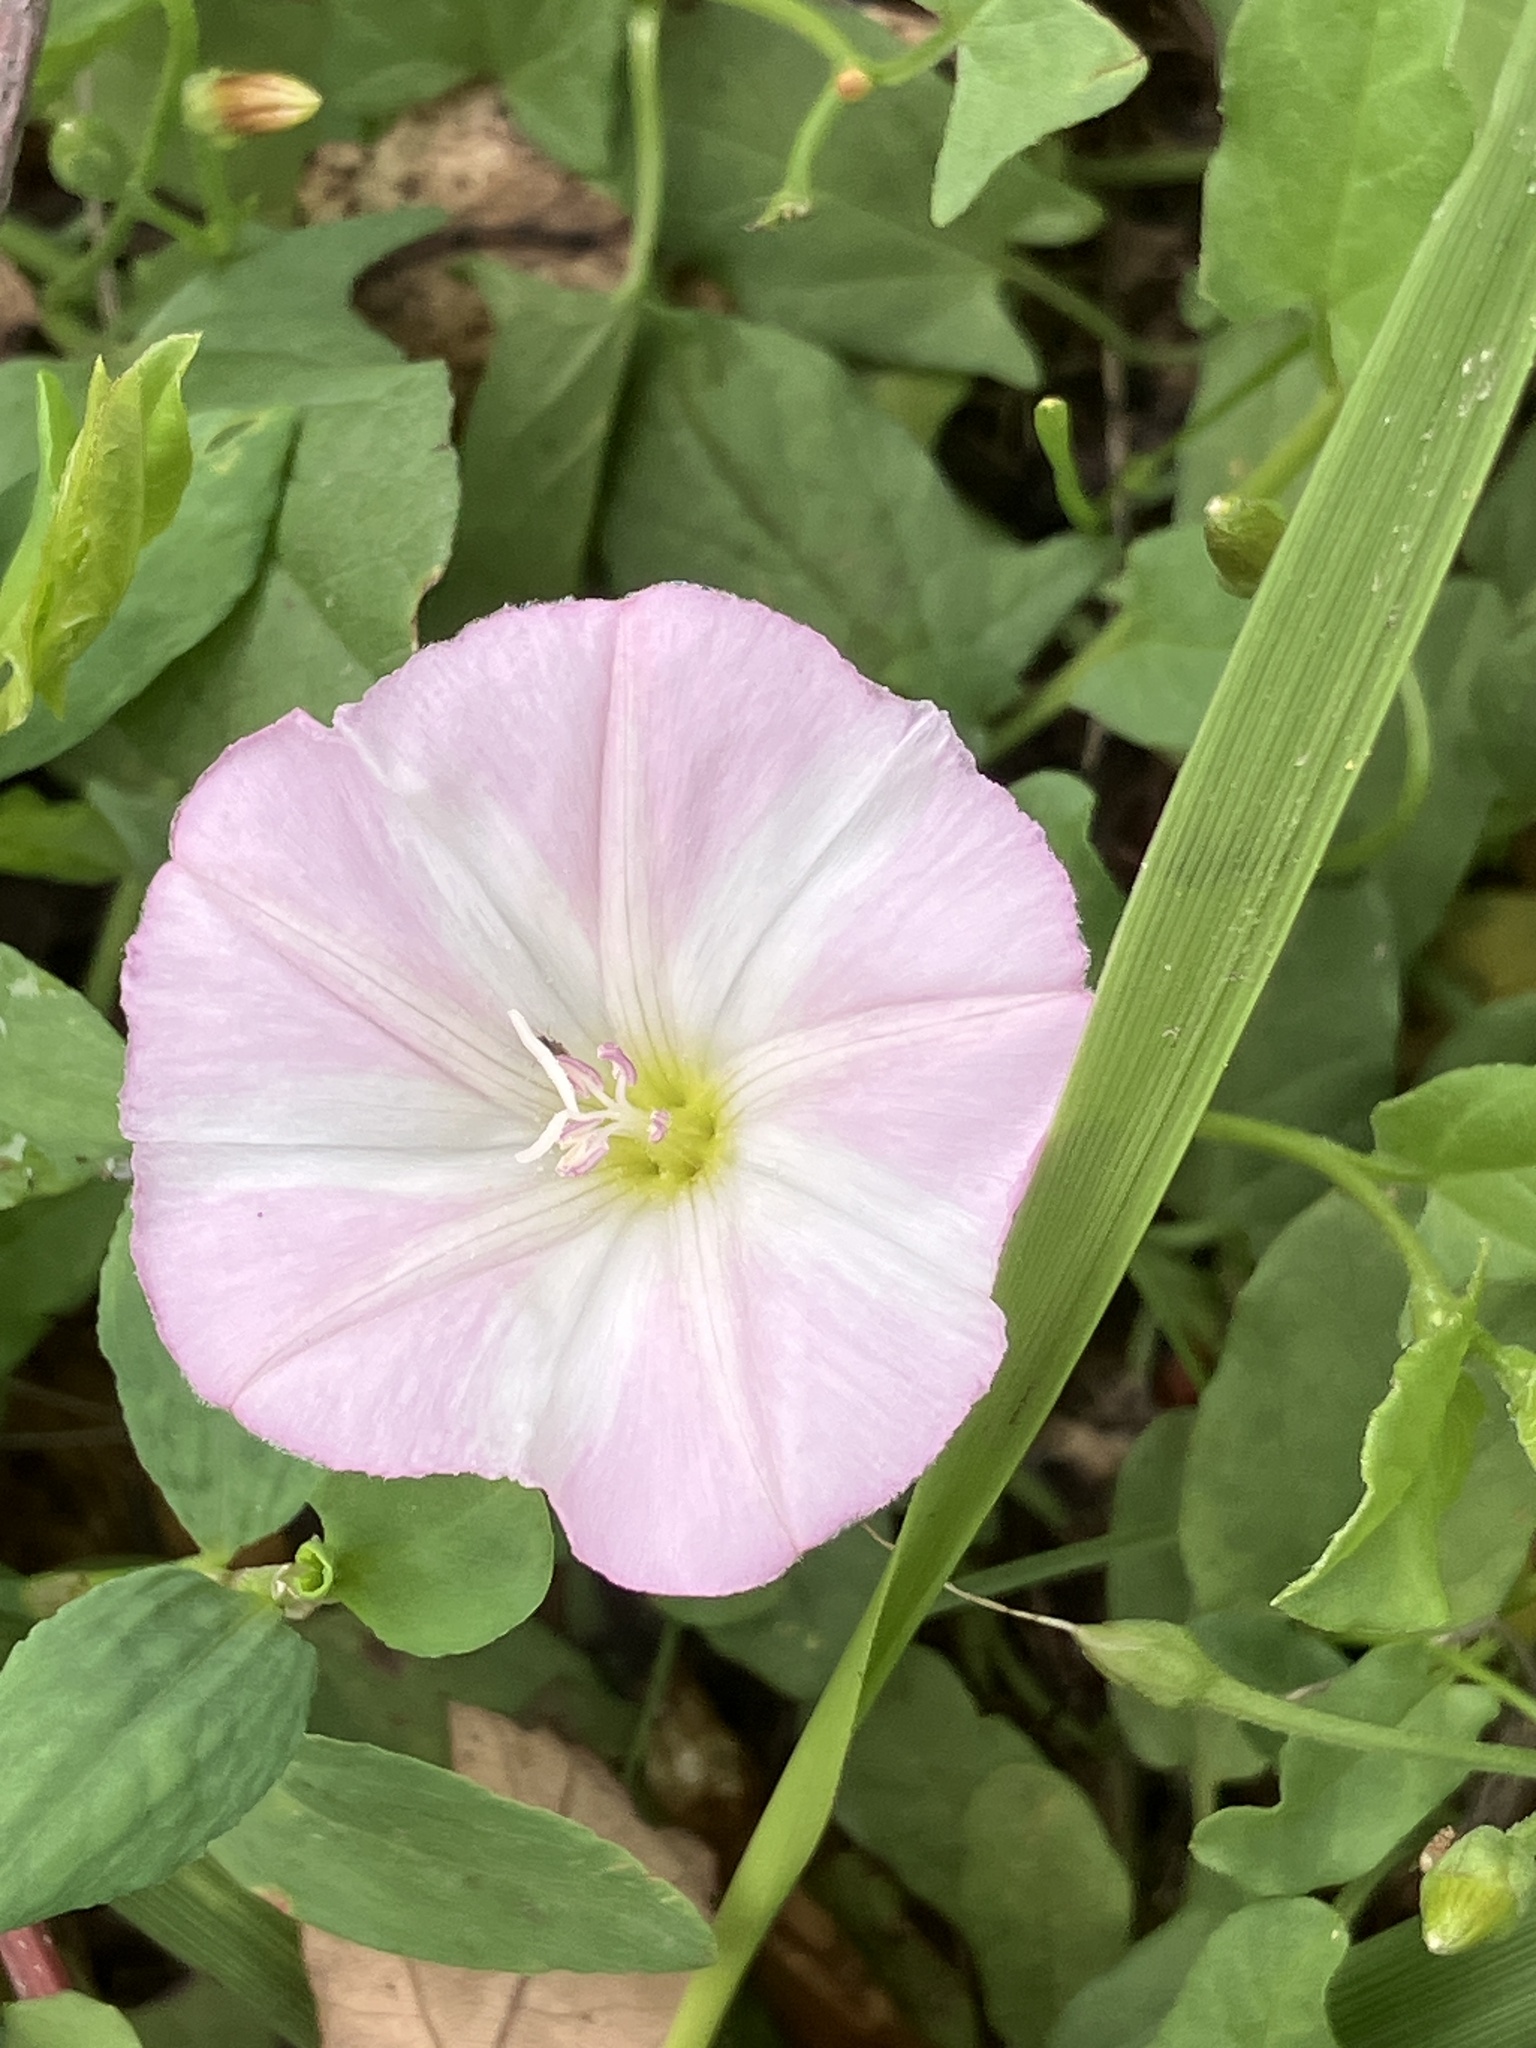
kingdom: Plantae
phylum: Tracheophyta
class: Magnoliopsida
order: Solanales
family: Convolvulaceae
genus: Convolvulus
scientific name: Convolvulus arvensis
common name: Field bindweed
